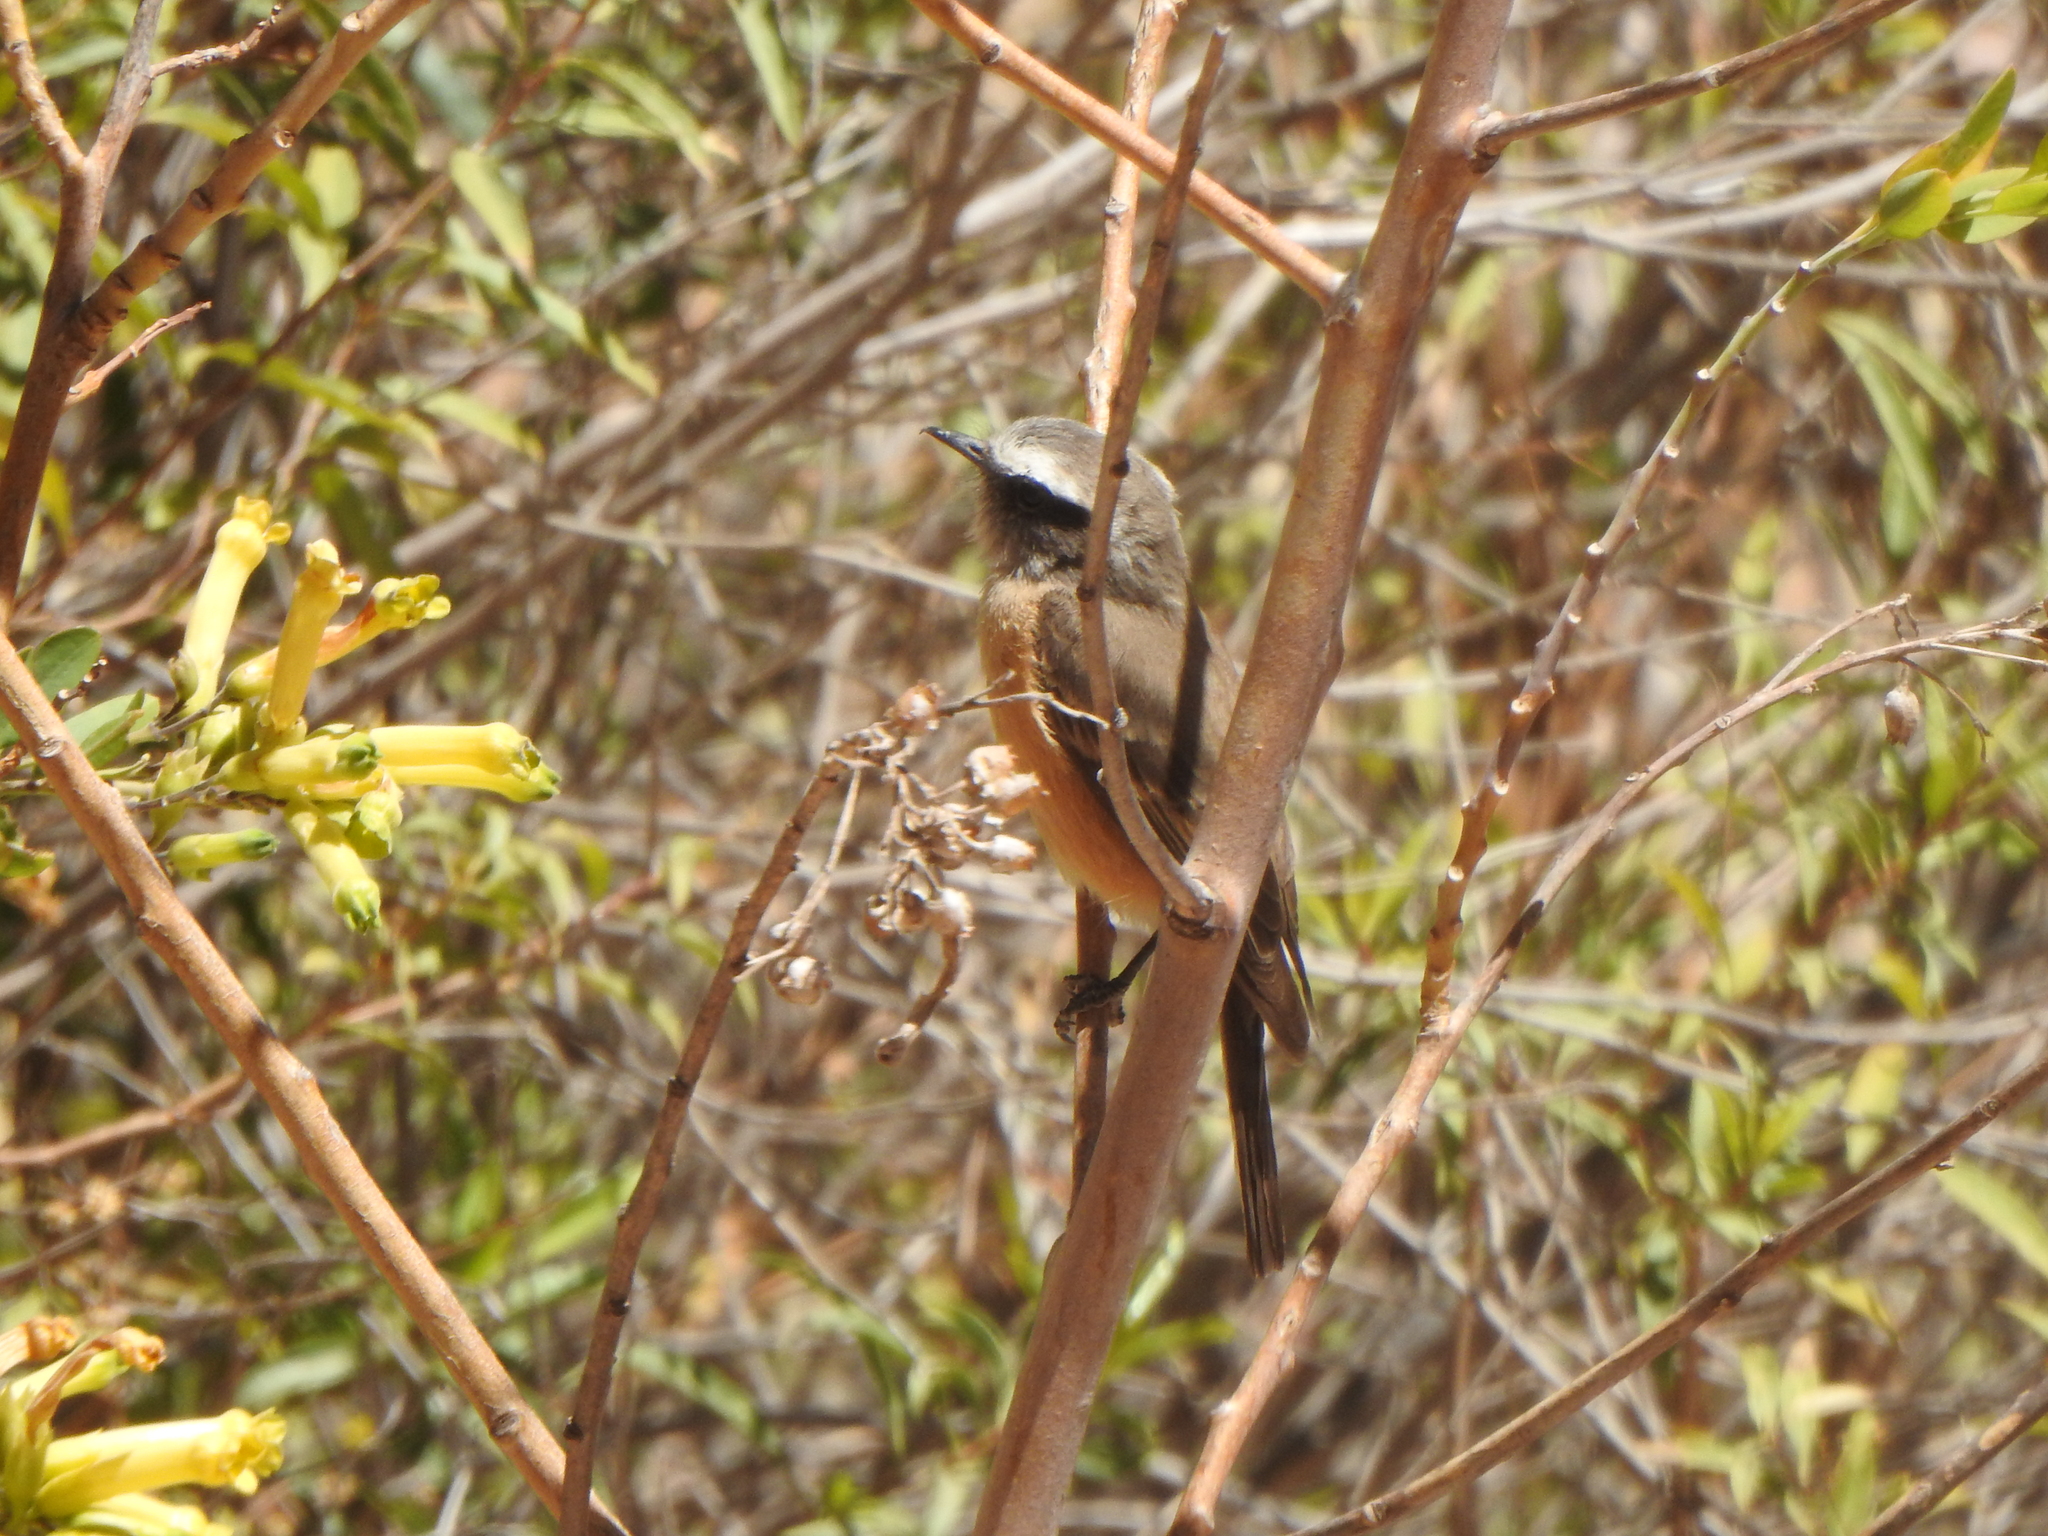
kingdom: Animalia
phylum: Chordata
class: Aves
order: Passeriformes
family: Tyrannidae
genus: Ochthoeca
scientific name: Ochthoeca oenanthoides
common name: D'orbigny's chat-tyrant
